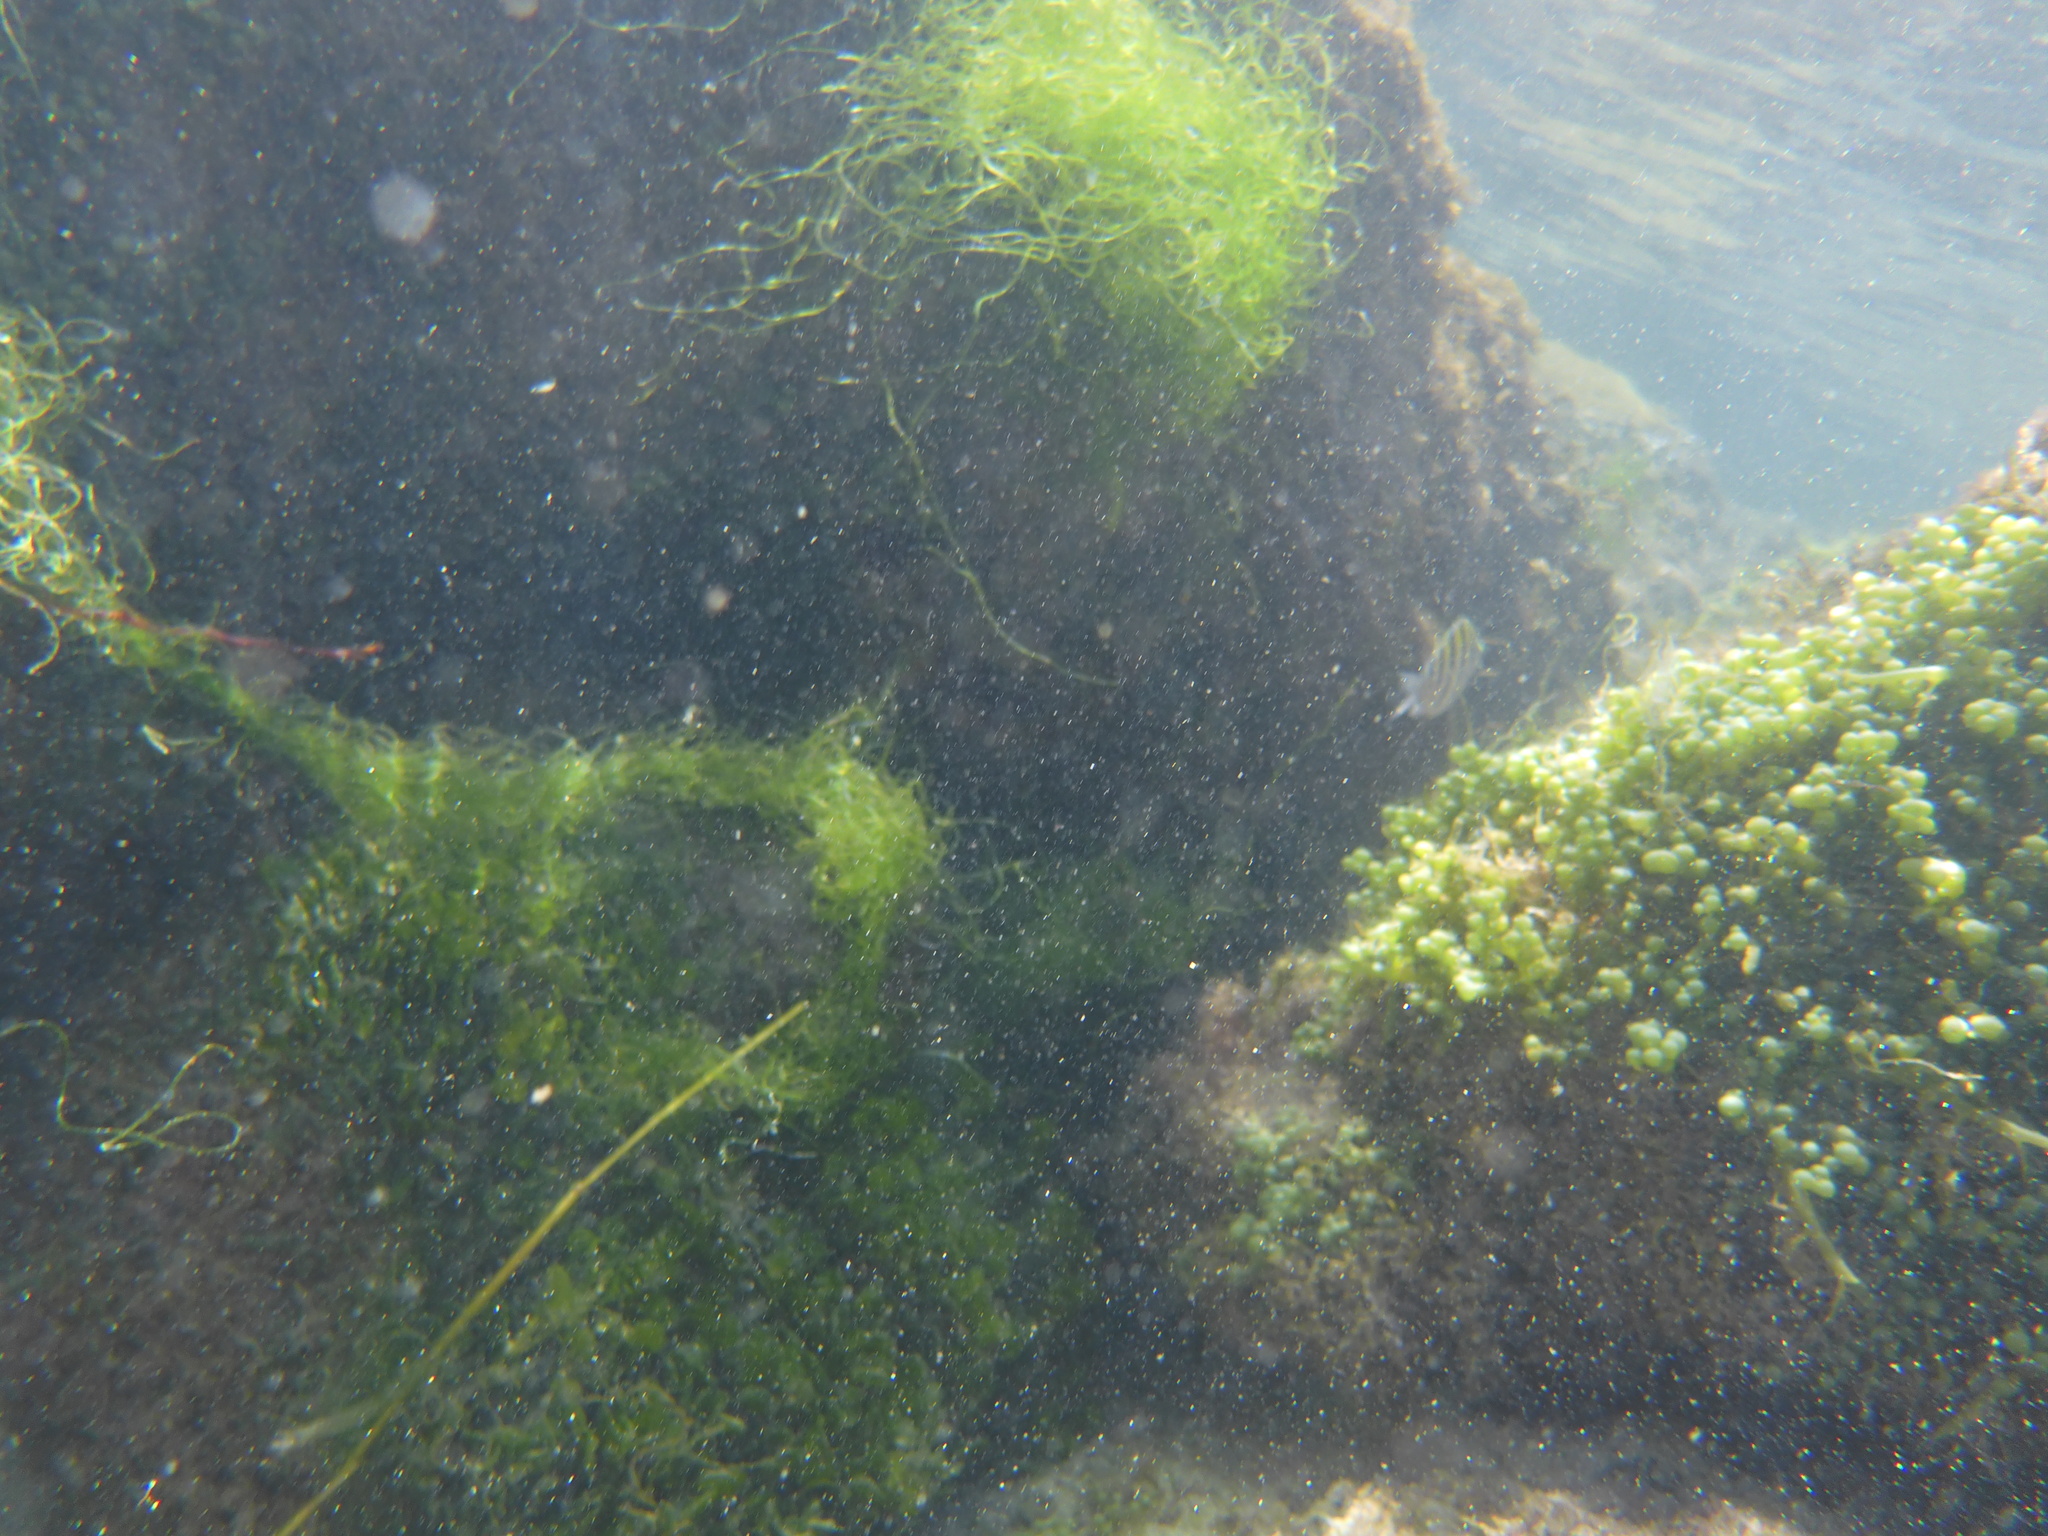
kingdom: Animalia
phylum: Chordata
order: Perciformes
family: Pomacentridae
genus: Abudefduf
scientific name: Abudefduf saxatilis
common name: Sergeant major
